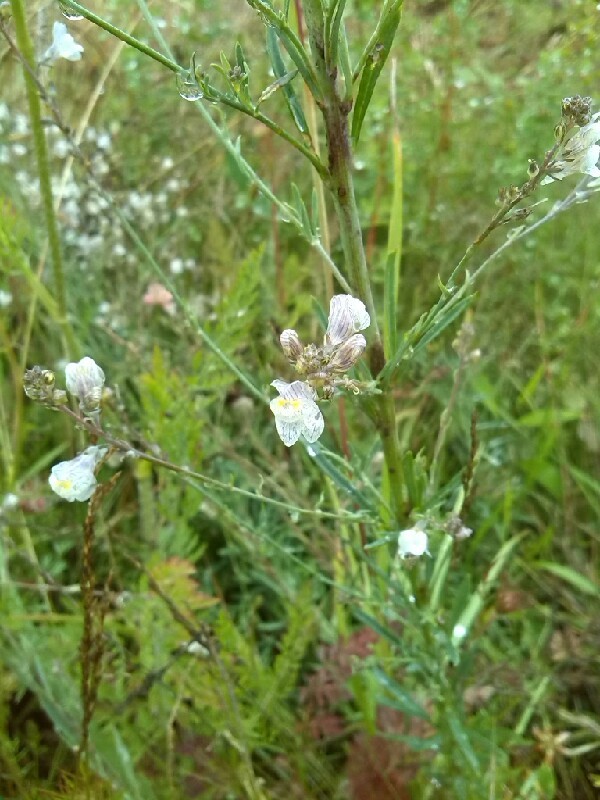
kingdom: Plantae
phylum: Tracheophyta
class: Magnoliopsida
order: Lamiales
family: Plantaginaceae
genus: Linaria
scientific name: Linaria repens
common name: Pale toadflax
